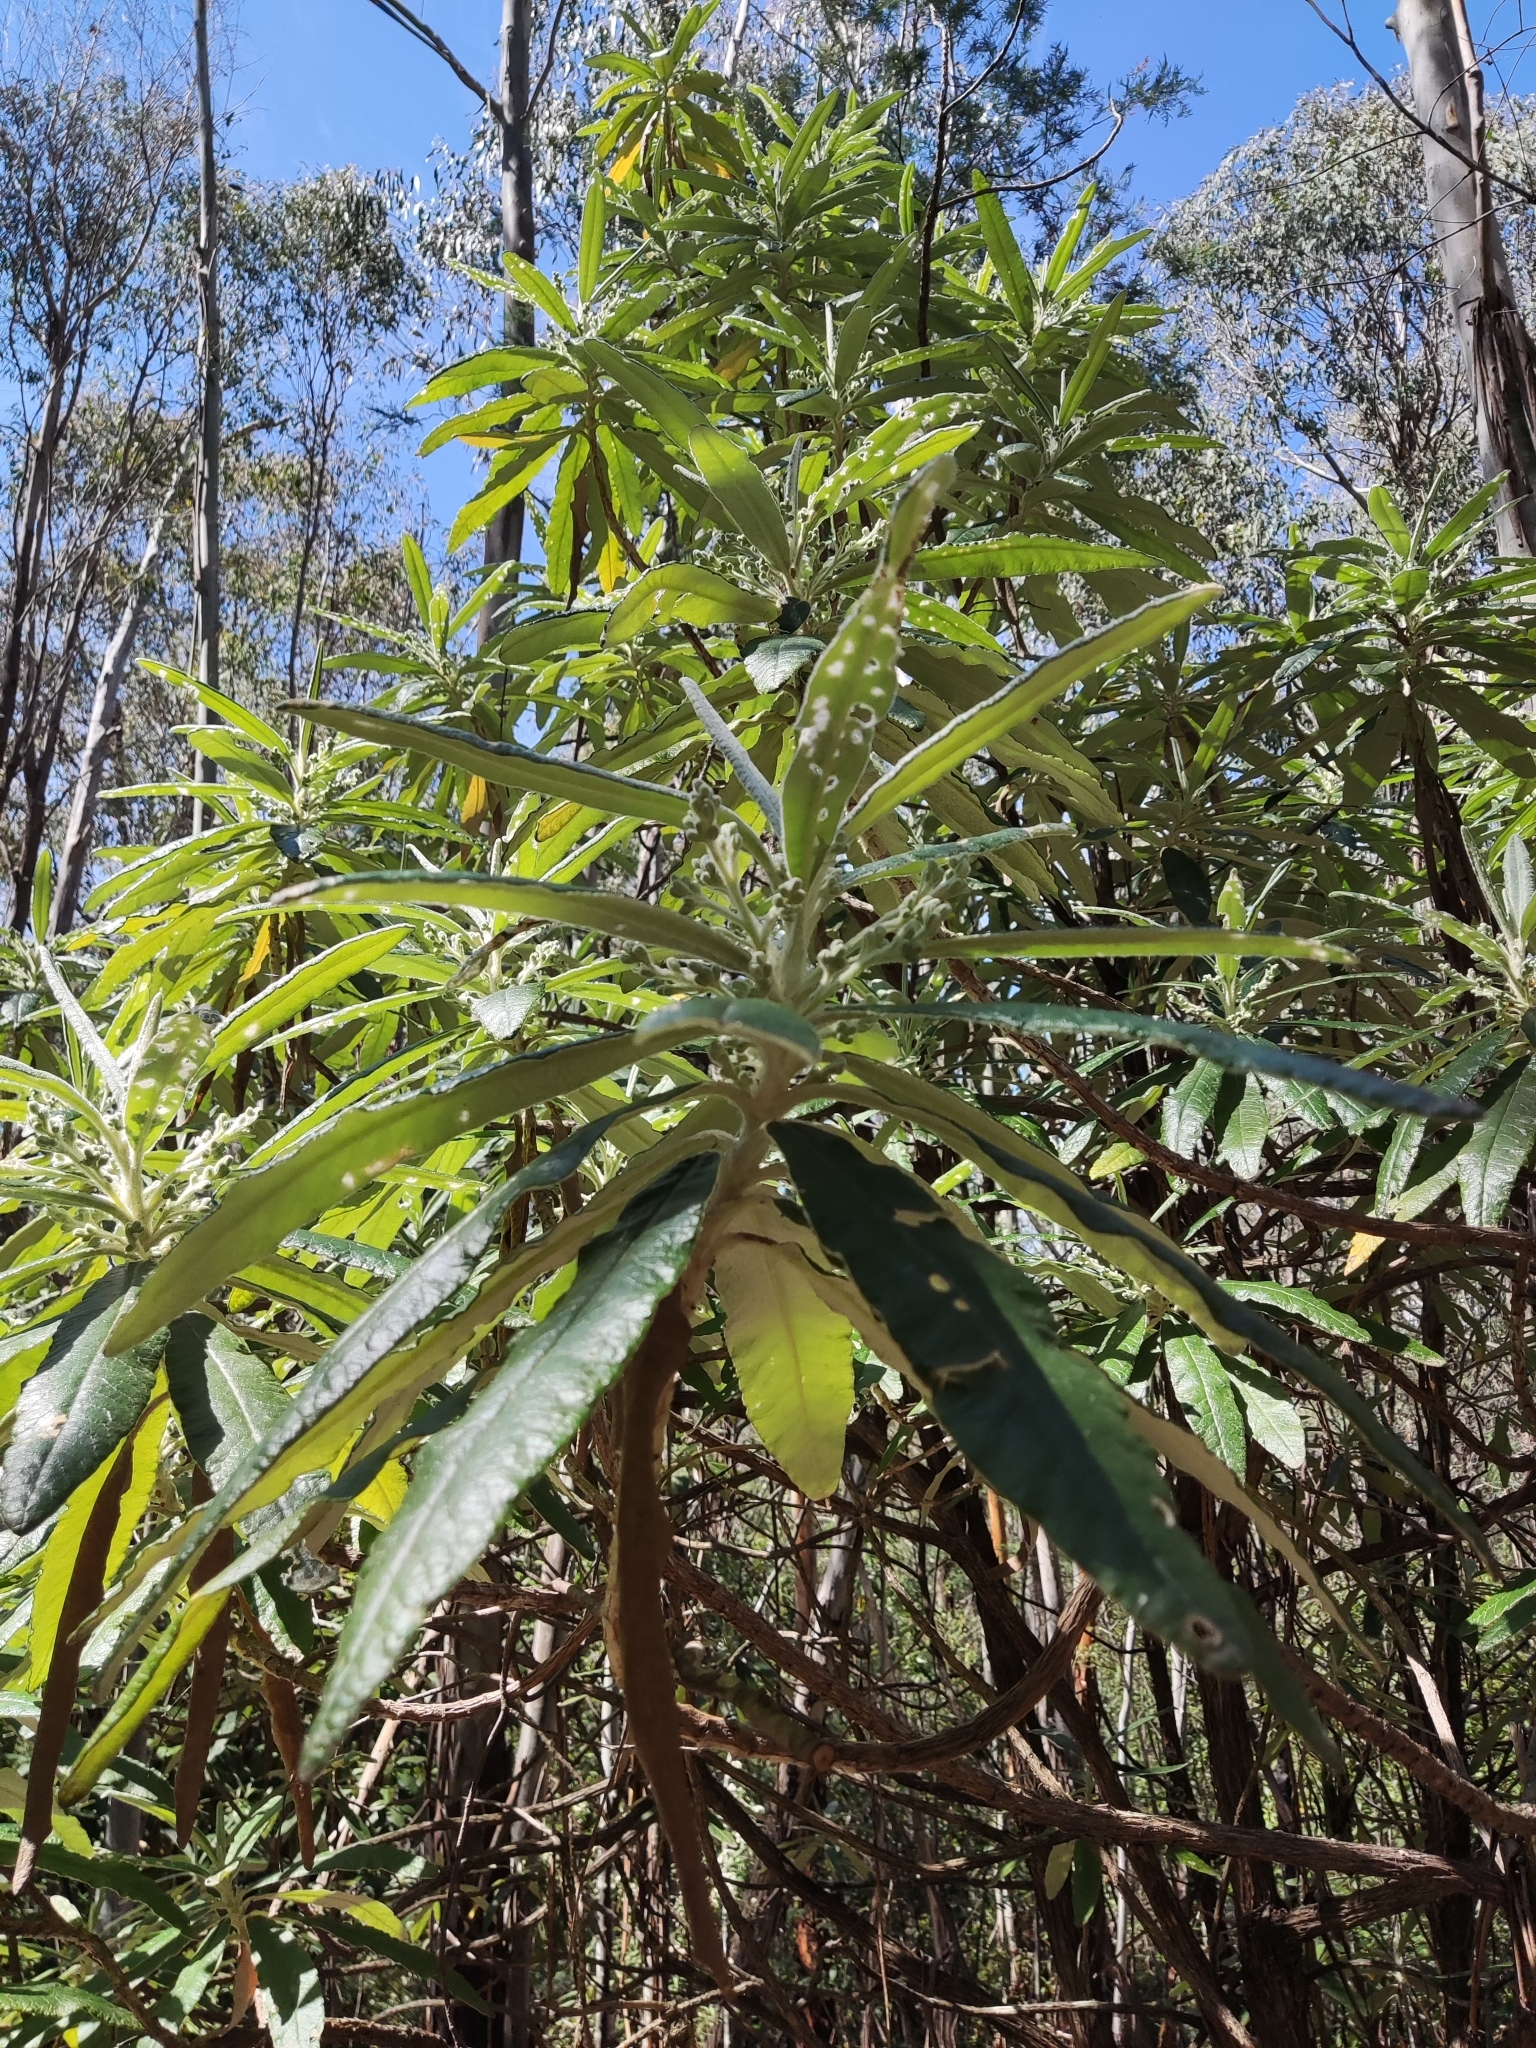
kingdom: Plantae
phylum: Tracheophyta
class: Magnoliopsida
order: Asterales
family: Asteraceae
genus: Bedfordia
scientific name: Bedfordia arborescens
